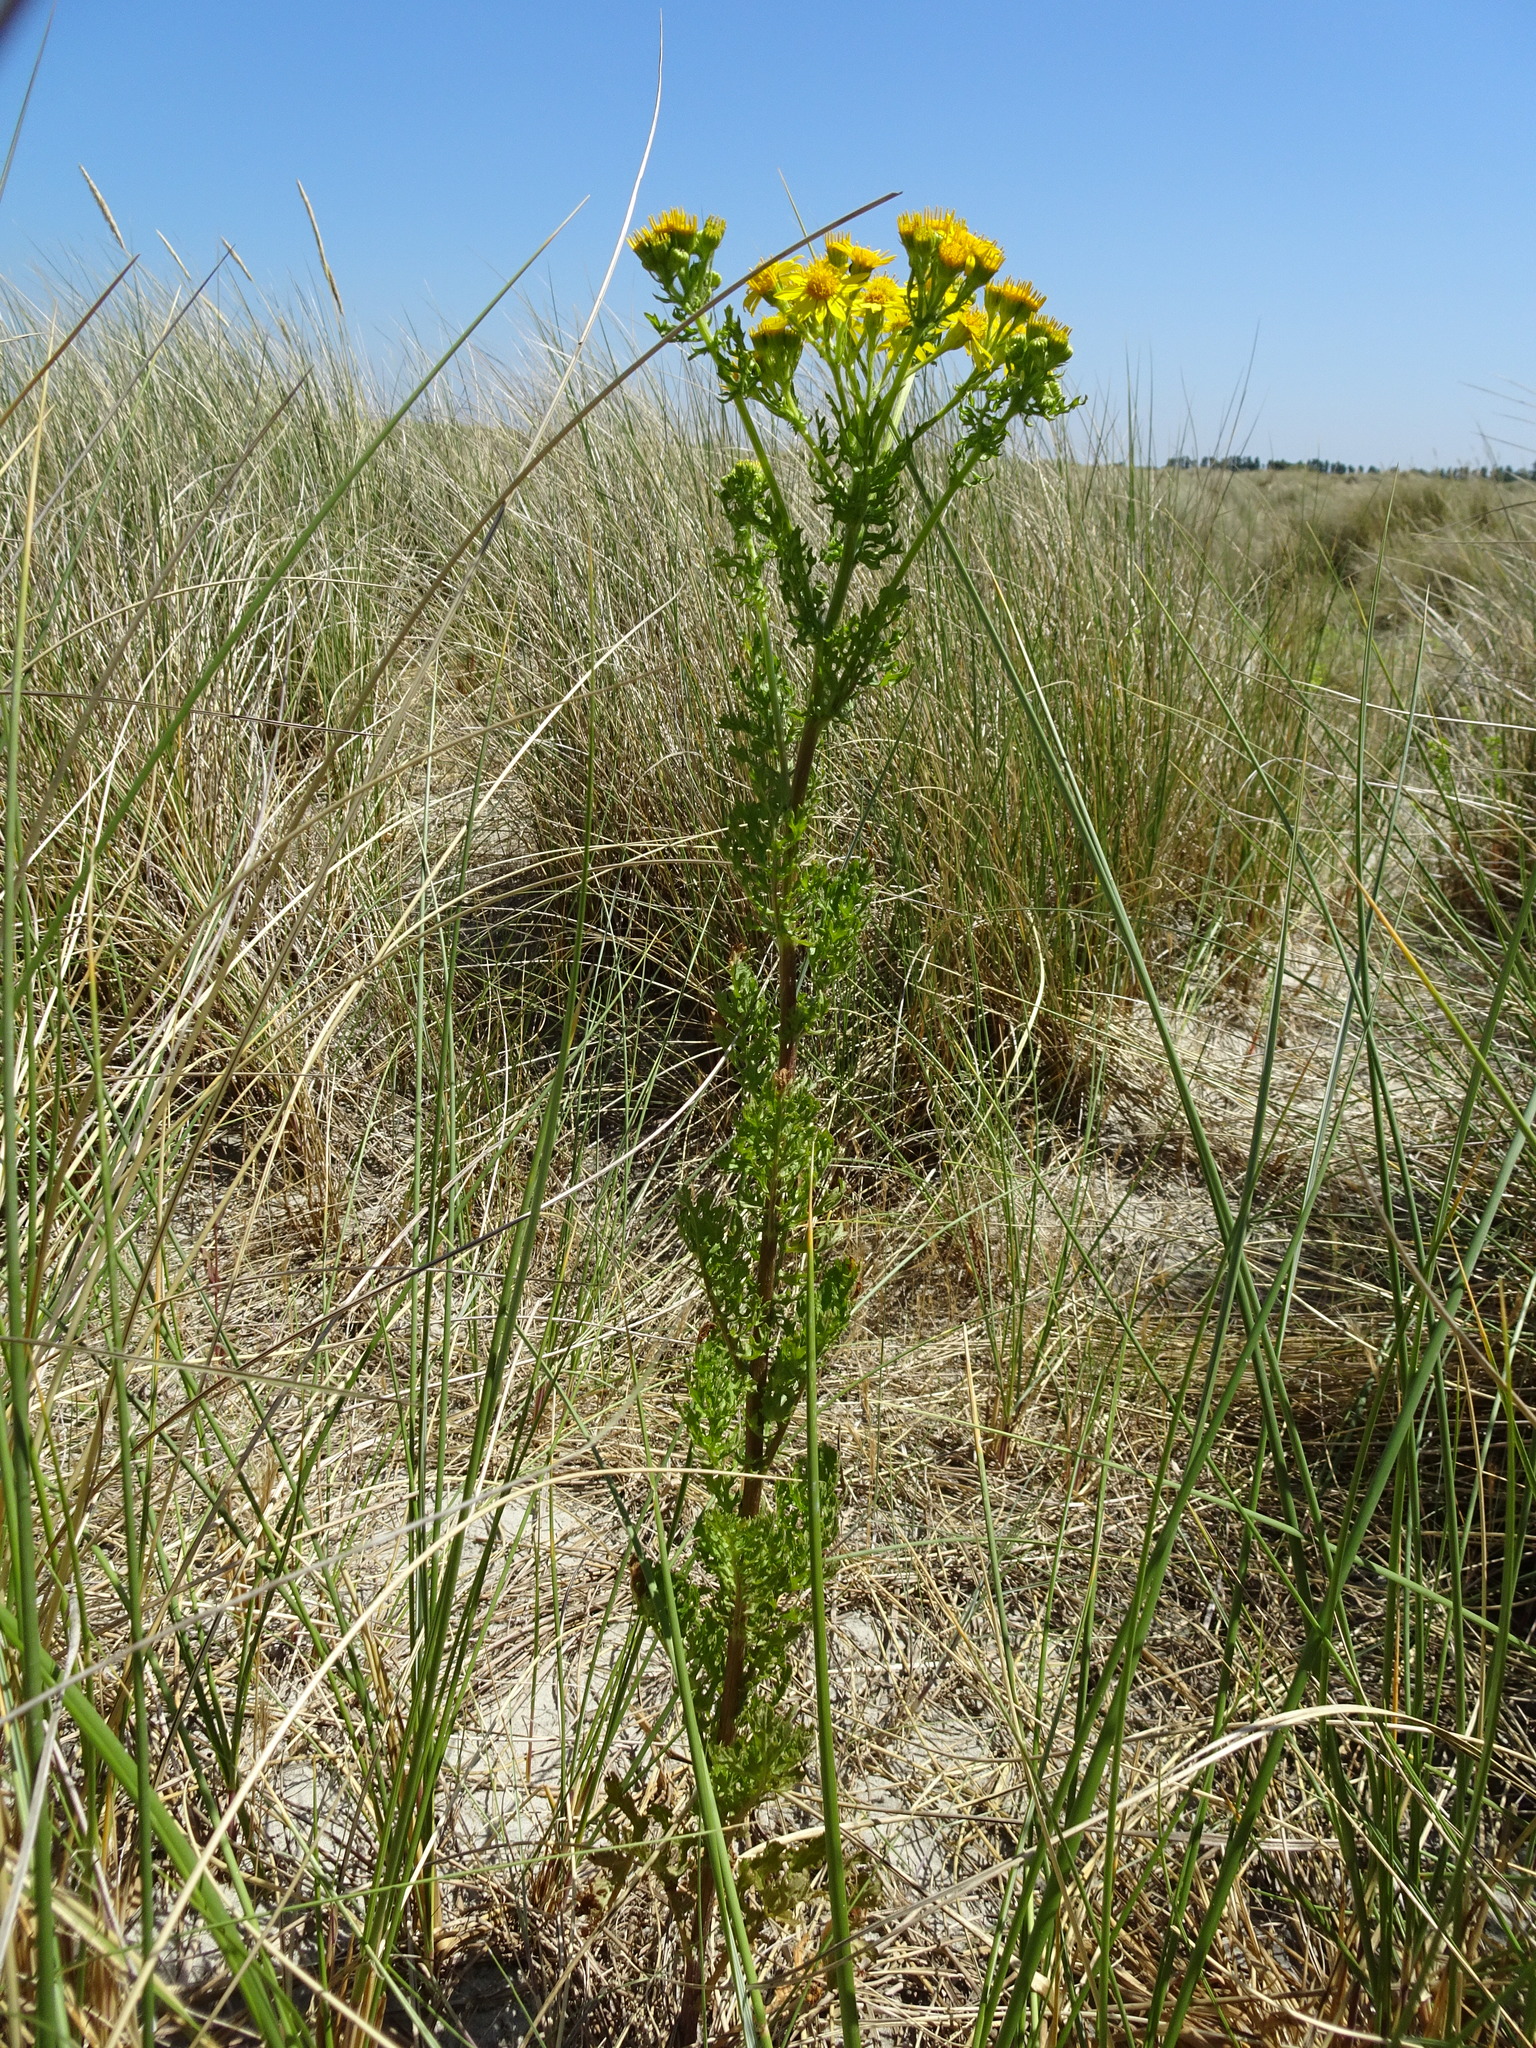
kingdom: Plantae
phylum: Tracheophyta
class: Magnoliopsida
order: Asterales
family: Asteraceae
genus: Jacobaea
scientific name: Jacobaea vulgaris
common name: Stinking willie
